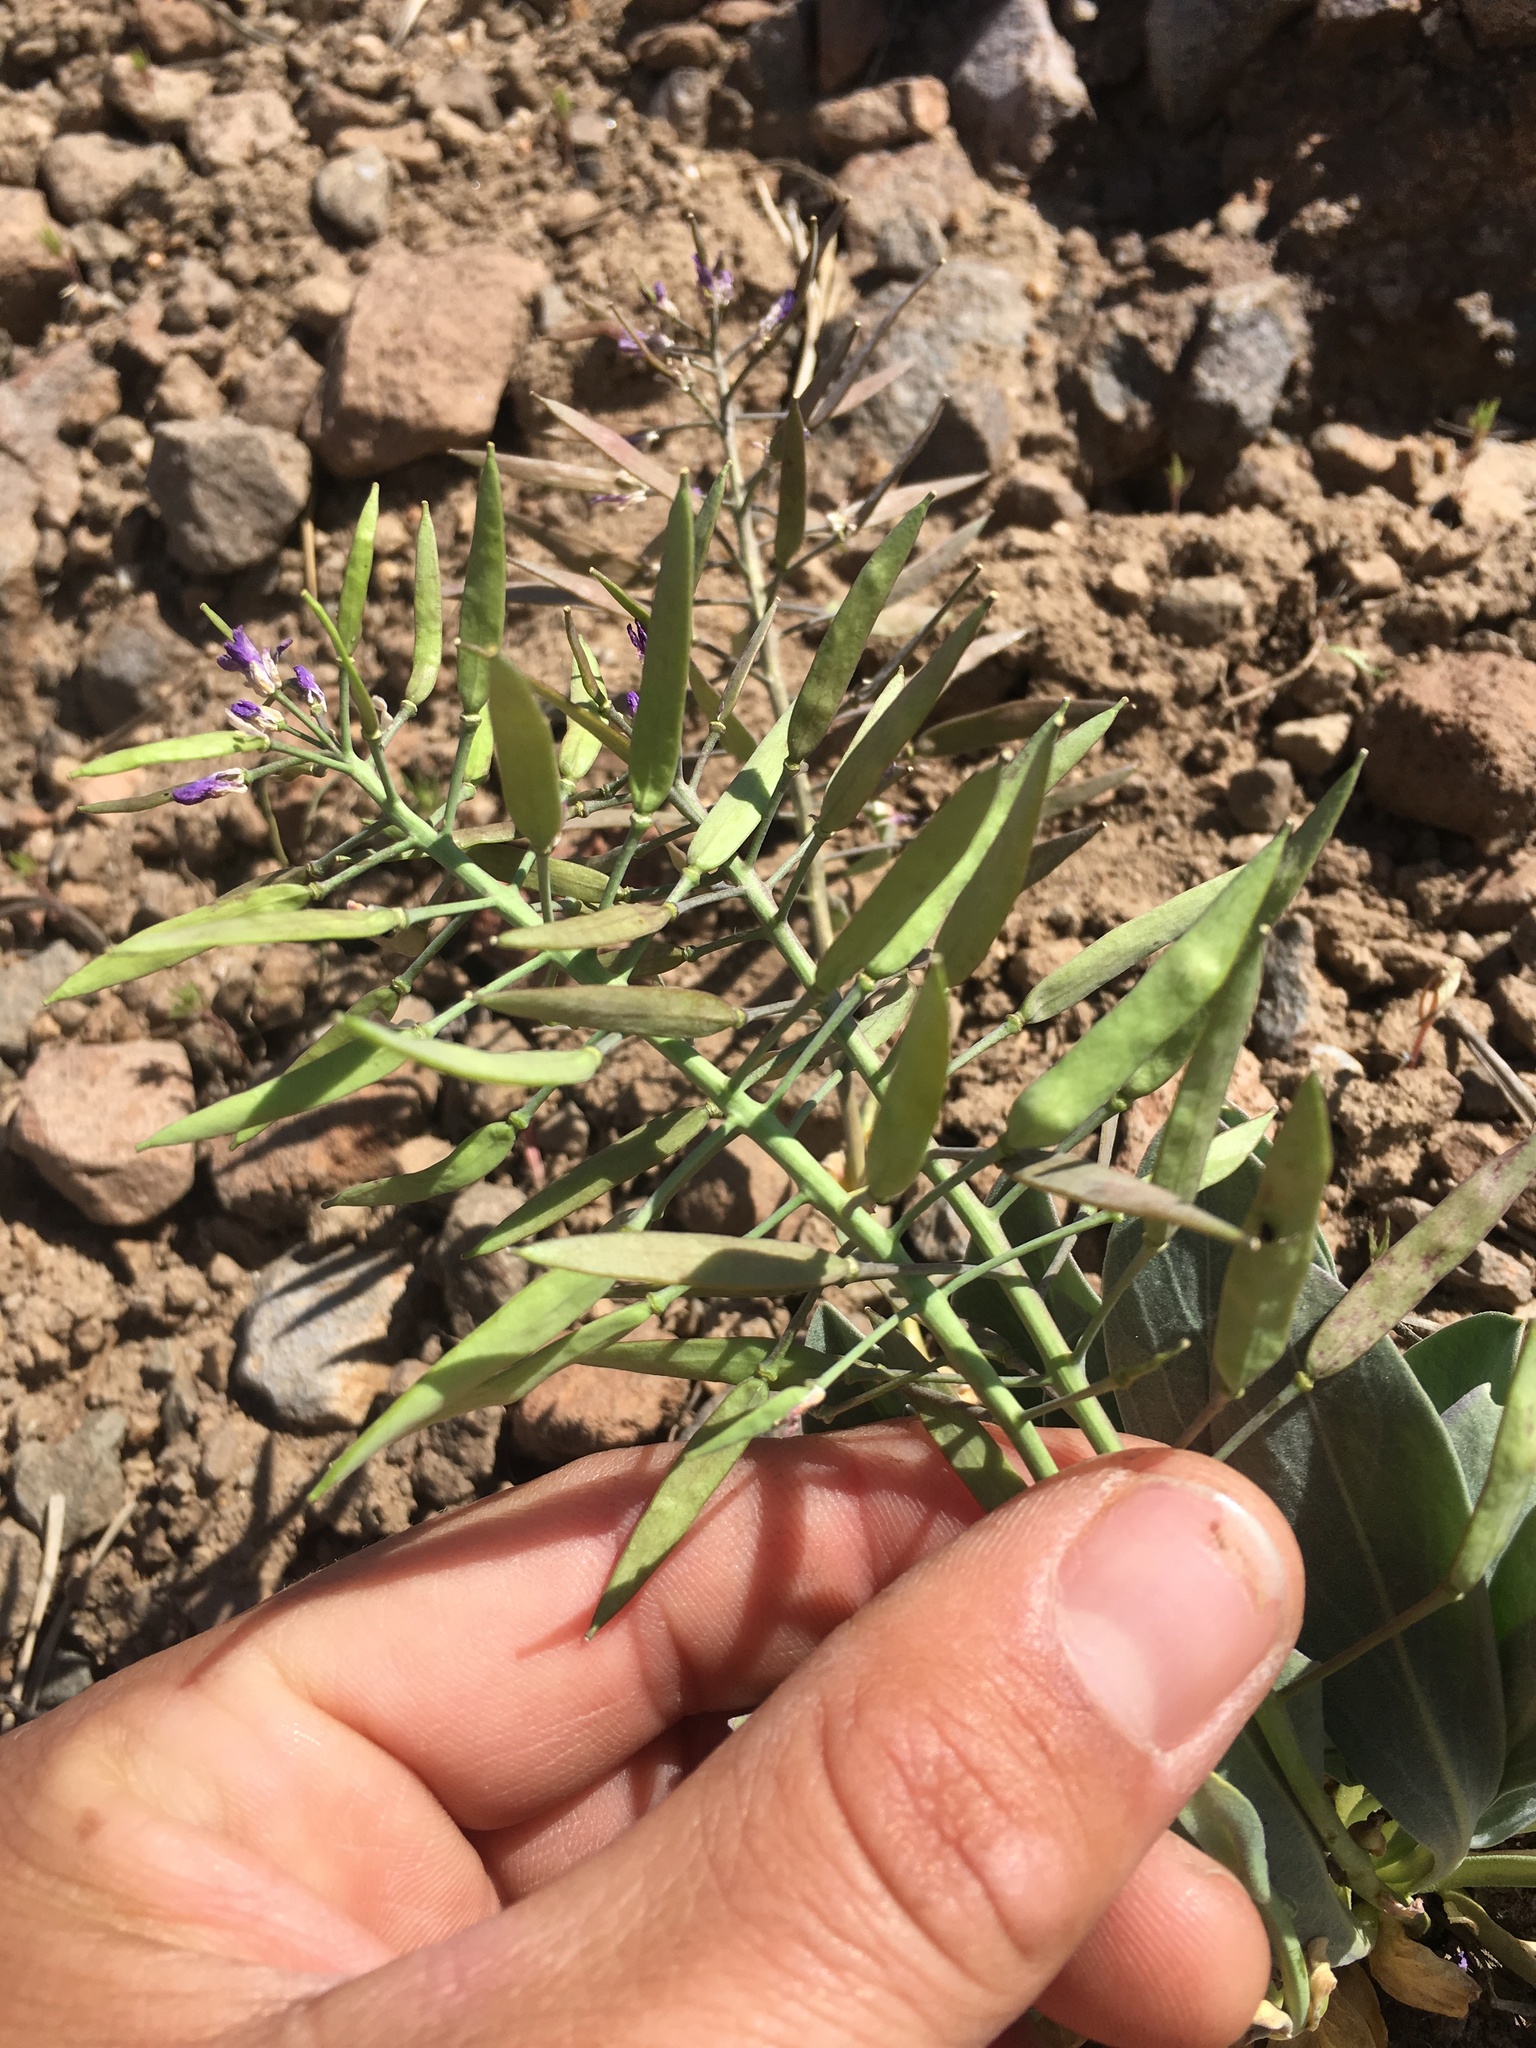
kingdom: Plantae
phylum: Tracheophyta
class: Magnoliopsida
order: Brassicales
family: Brassicaceae
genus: Phoenicaulis
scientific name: Phoenicaulis cheiranthoides
